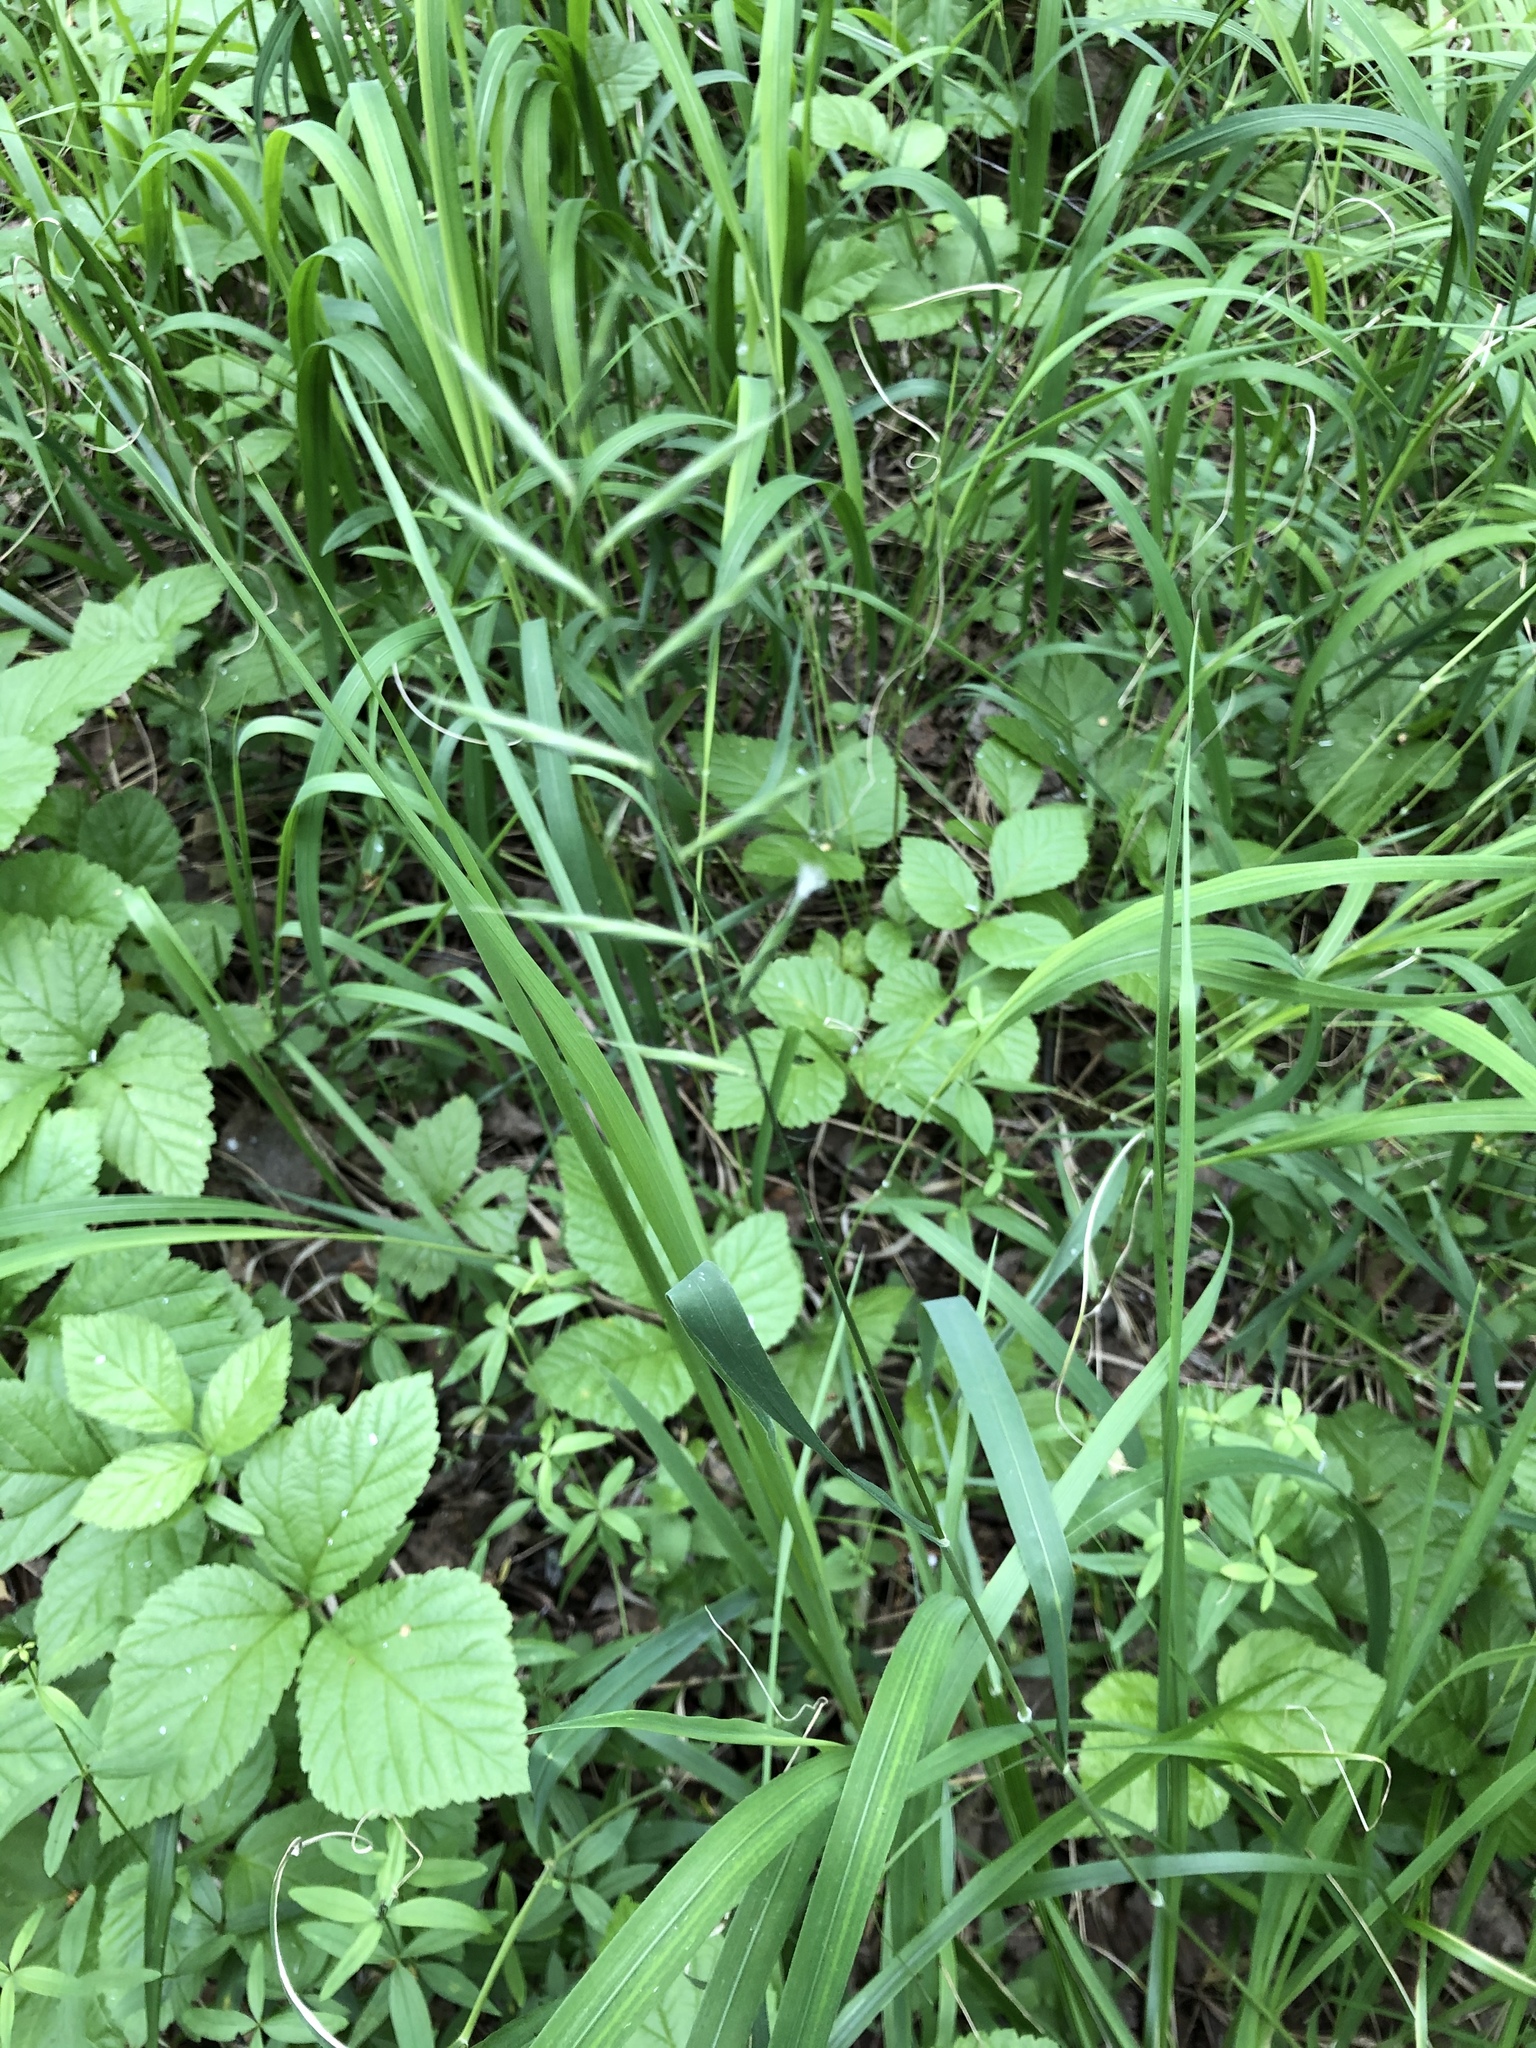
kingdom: Plantae
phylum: Tracheophyta
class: Liliopsida
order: Poales
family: Poaceae
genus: Brachypodium
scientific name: Brachypodium pinnatum
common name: Tor grass
